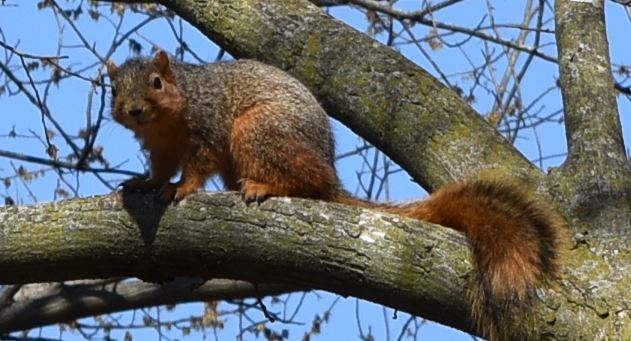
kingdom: Animalia
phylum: Chordata
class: Mammalia
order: Rodentia
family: Sciuridae
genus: Sciurus
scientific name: Sciurus niger
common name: Fox squirrel
